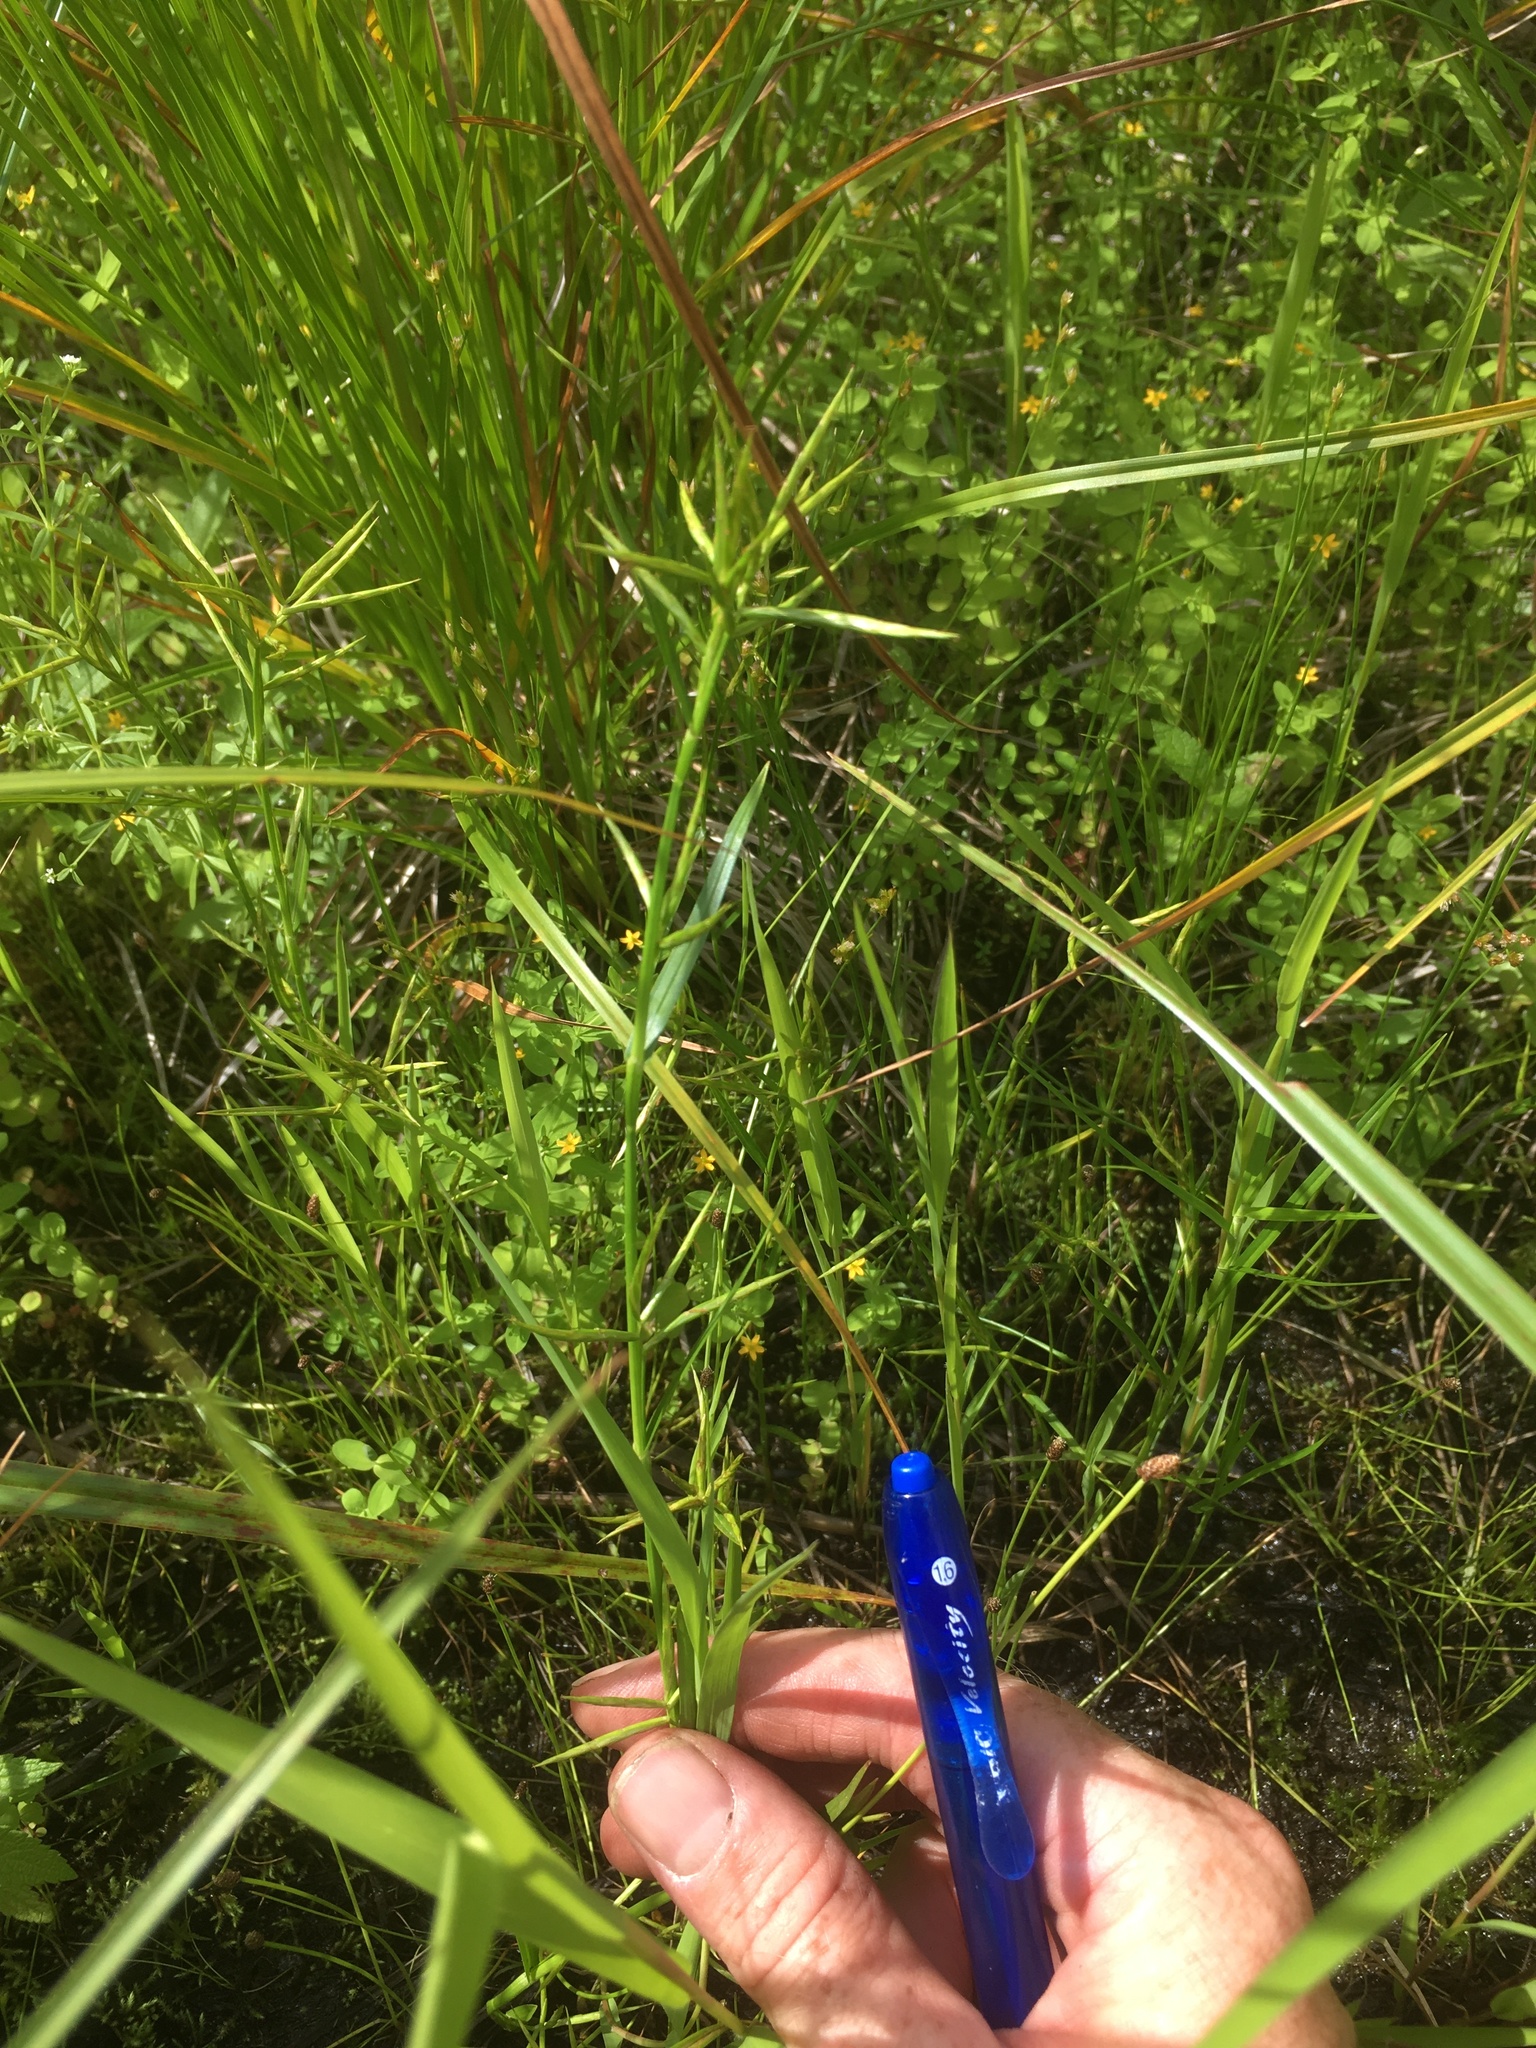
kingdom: Plantae
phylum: Tracheophyta
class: Liliopsida
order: Poales
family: Cyperaceae
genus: Dulichium
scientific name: Dulichium arundinaceum
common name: Three-way sedge
